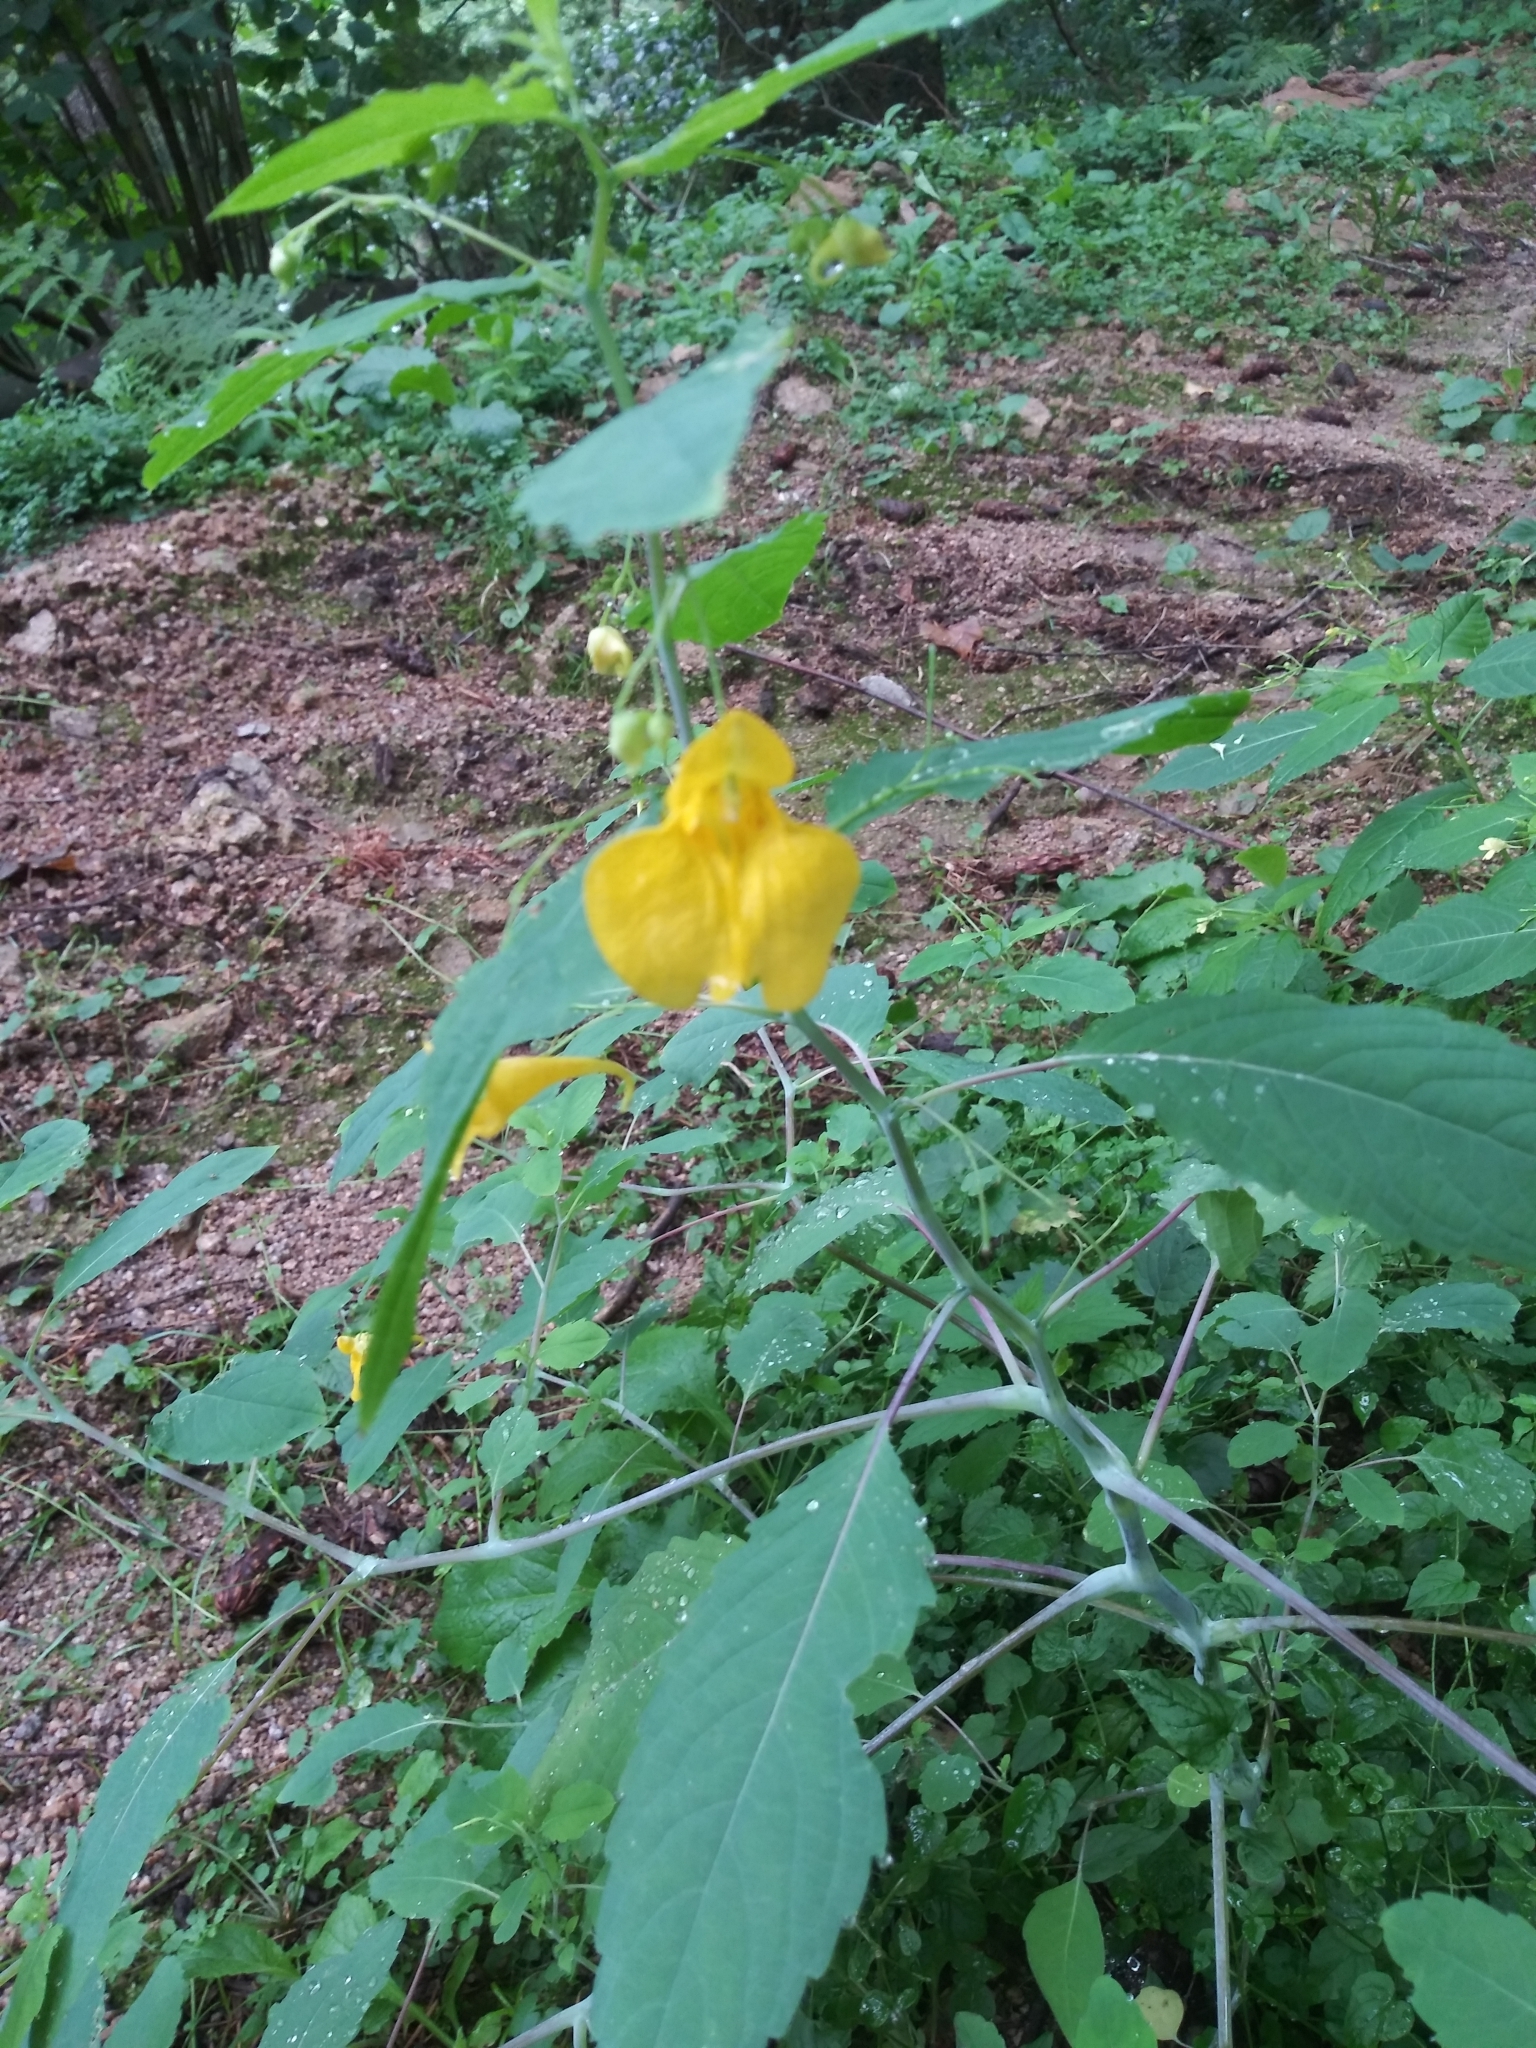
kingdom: Plantae
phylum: Tracheophyta
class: Magnoliopsida
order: Ericales
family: Balsaminaceae
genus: Impatiens
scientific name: Impatiens noli-tangere
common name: Touch-me-not balsam
